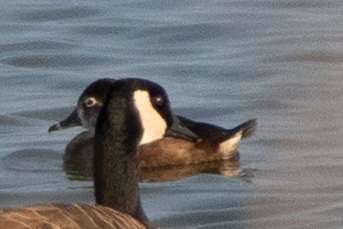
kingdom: Animalia
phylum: Chordata
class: Aves
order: Anseriformes
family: Anatidae
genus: Aythya
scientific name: Aythya collaris
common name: Ring-necked duck
